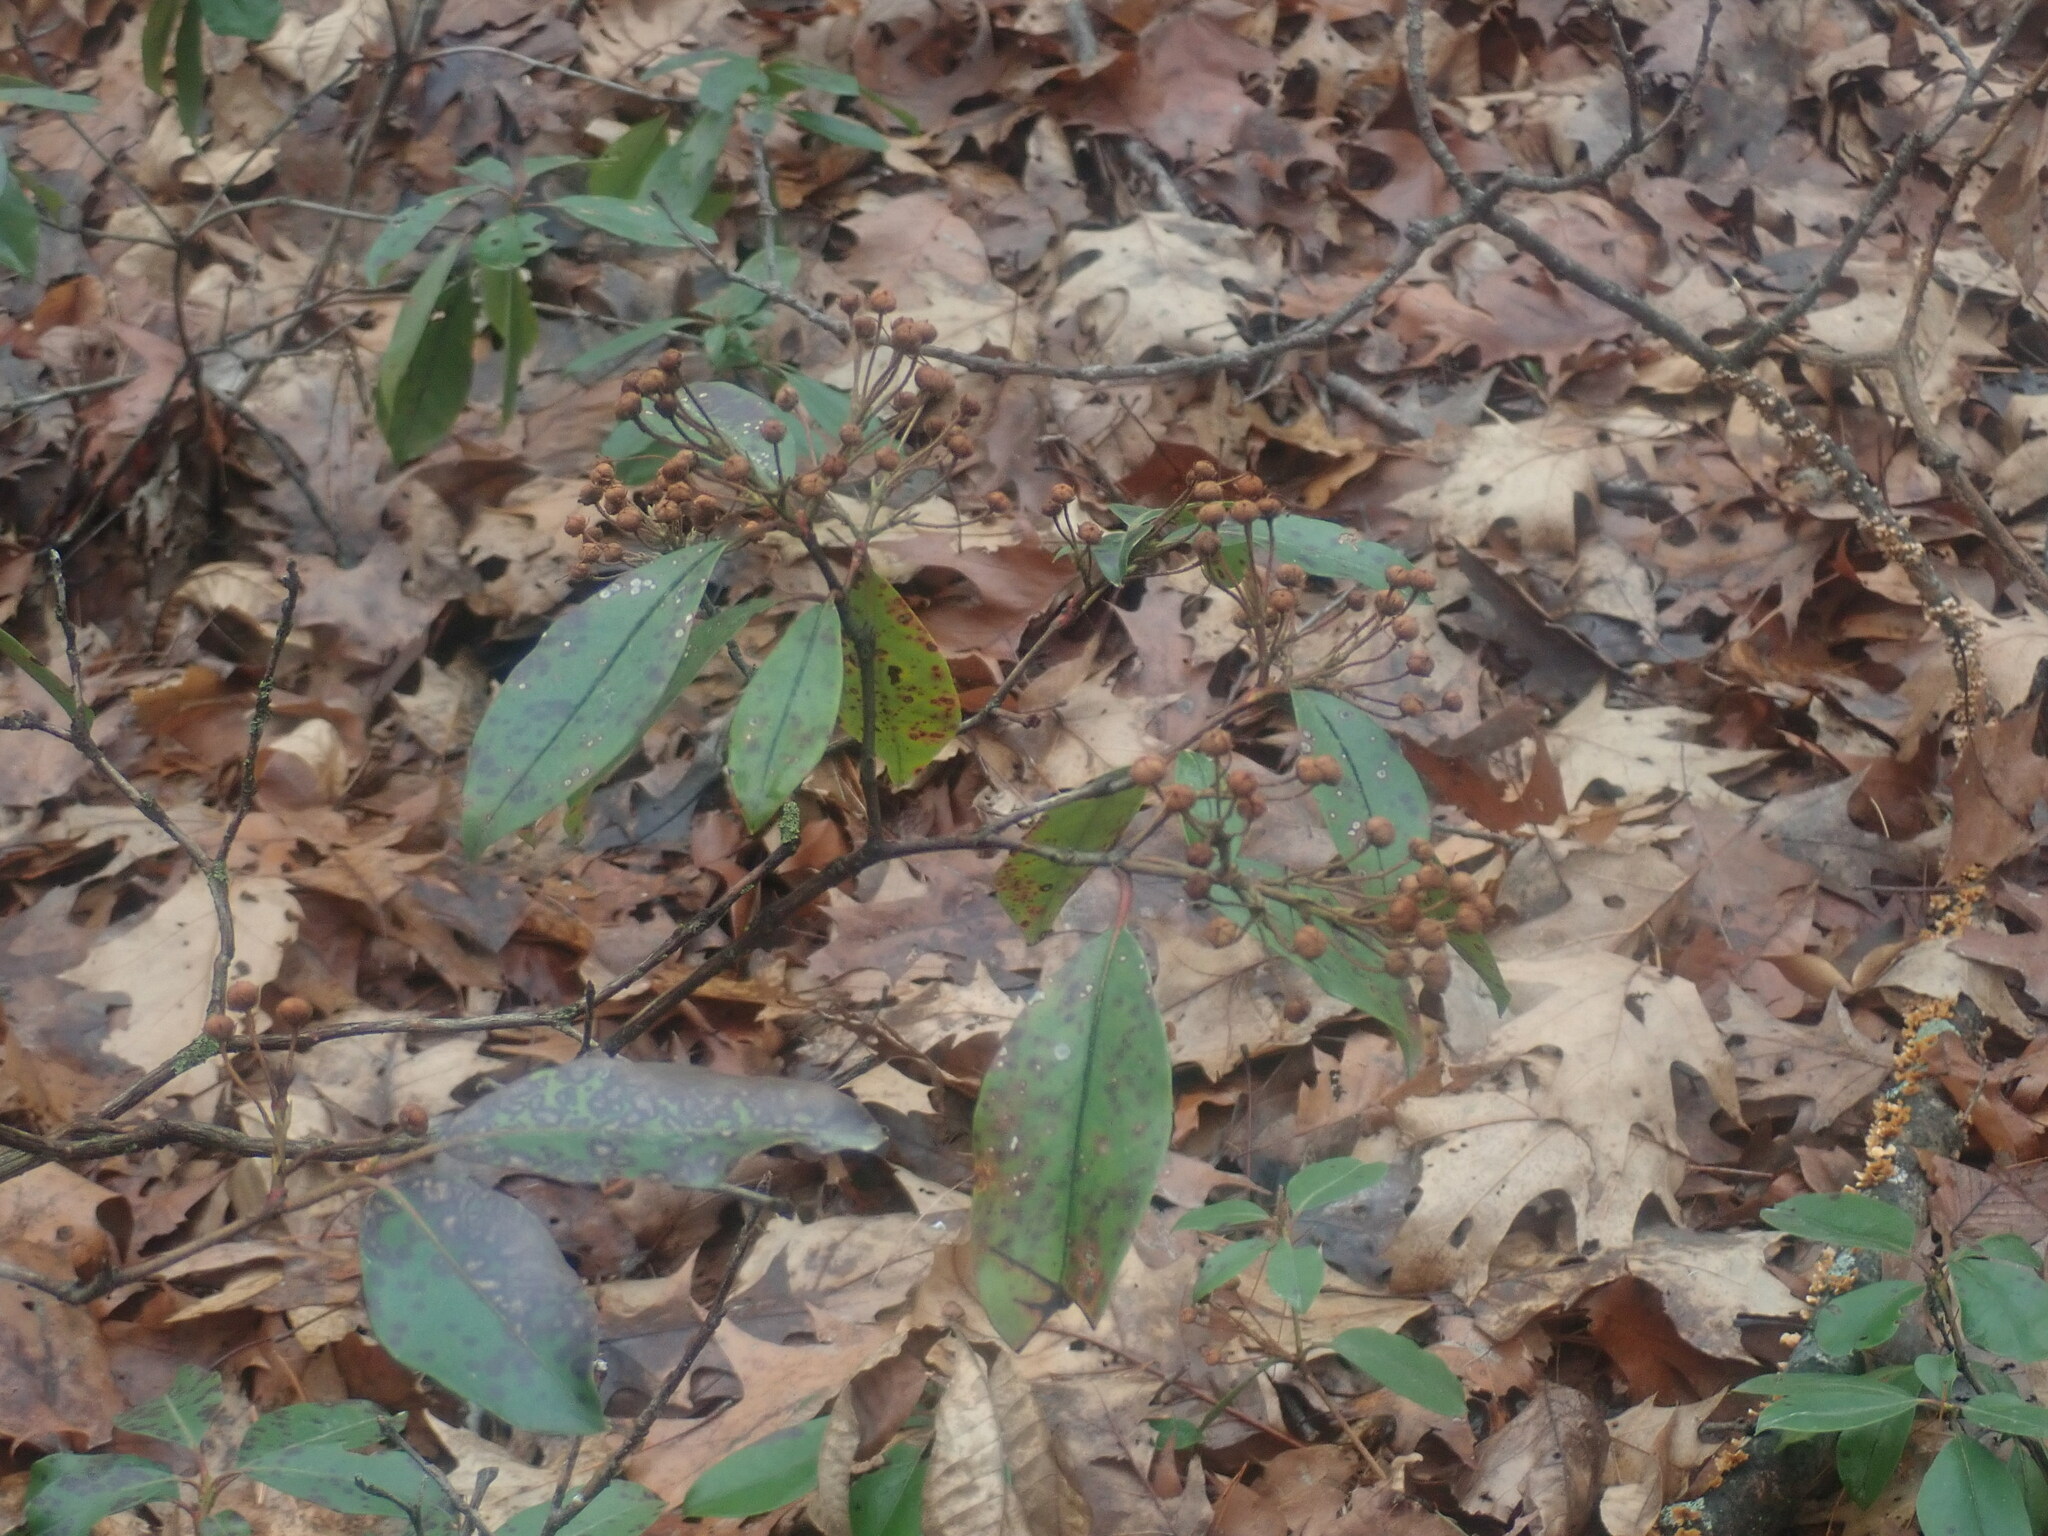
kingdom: Plantae
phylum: Tracheophyta
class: Magnoliopsida
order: Ericales
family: Ericaceae
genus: Kalmia
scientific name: Kalmia latifolia
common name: Mountain-laurel
